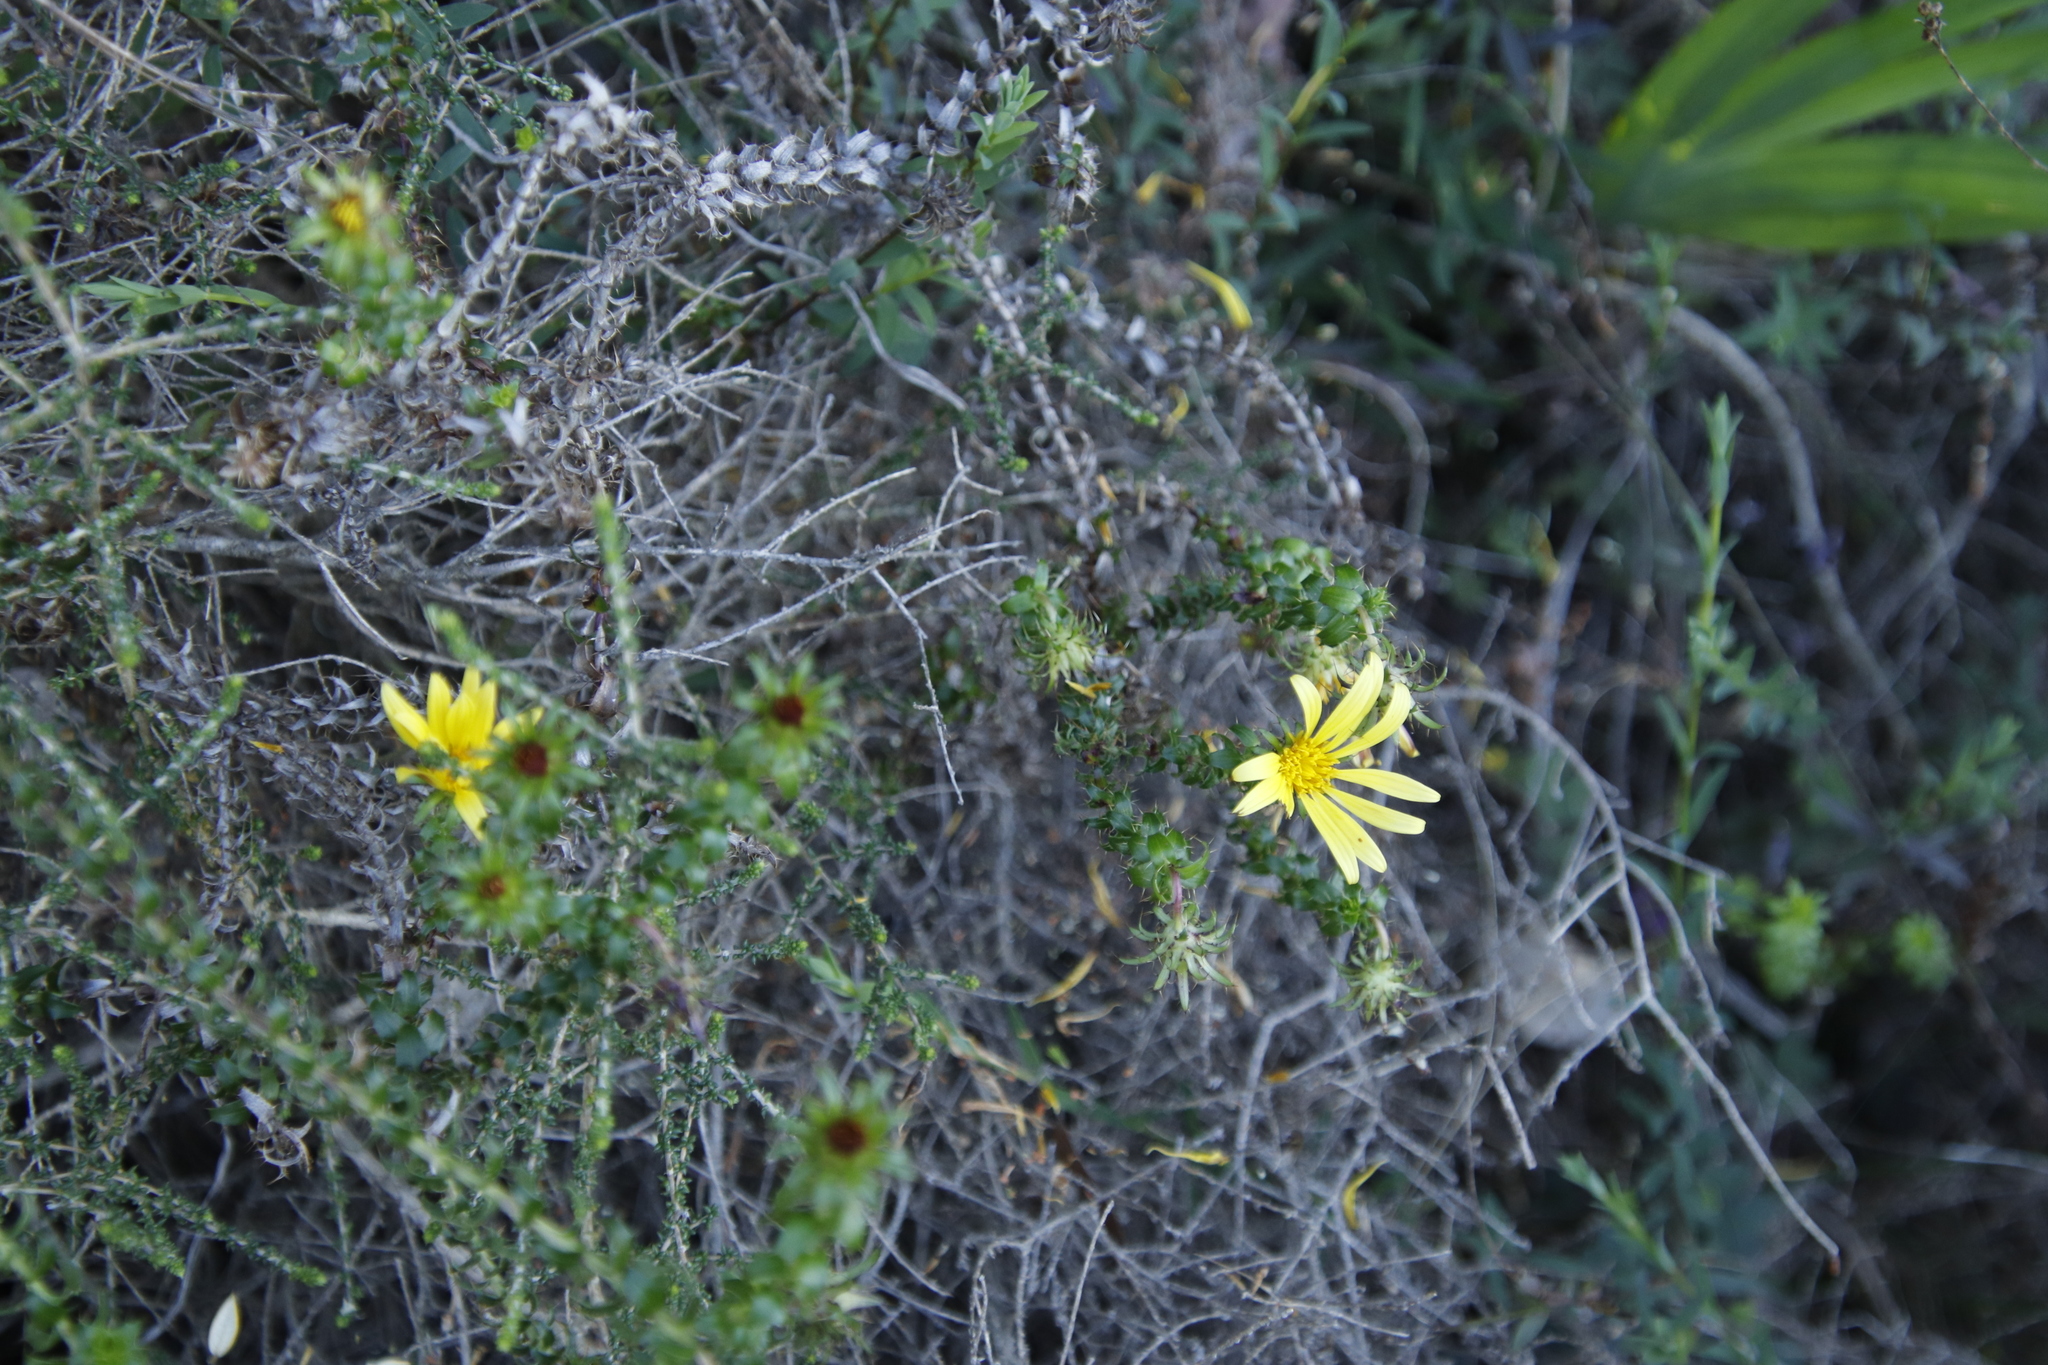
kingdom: Plantae
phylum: Tracheophyta
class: Magnoliopsida
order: Asterales
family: Asteraceae
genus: Cullumia
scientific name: Cullumia setosa
